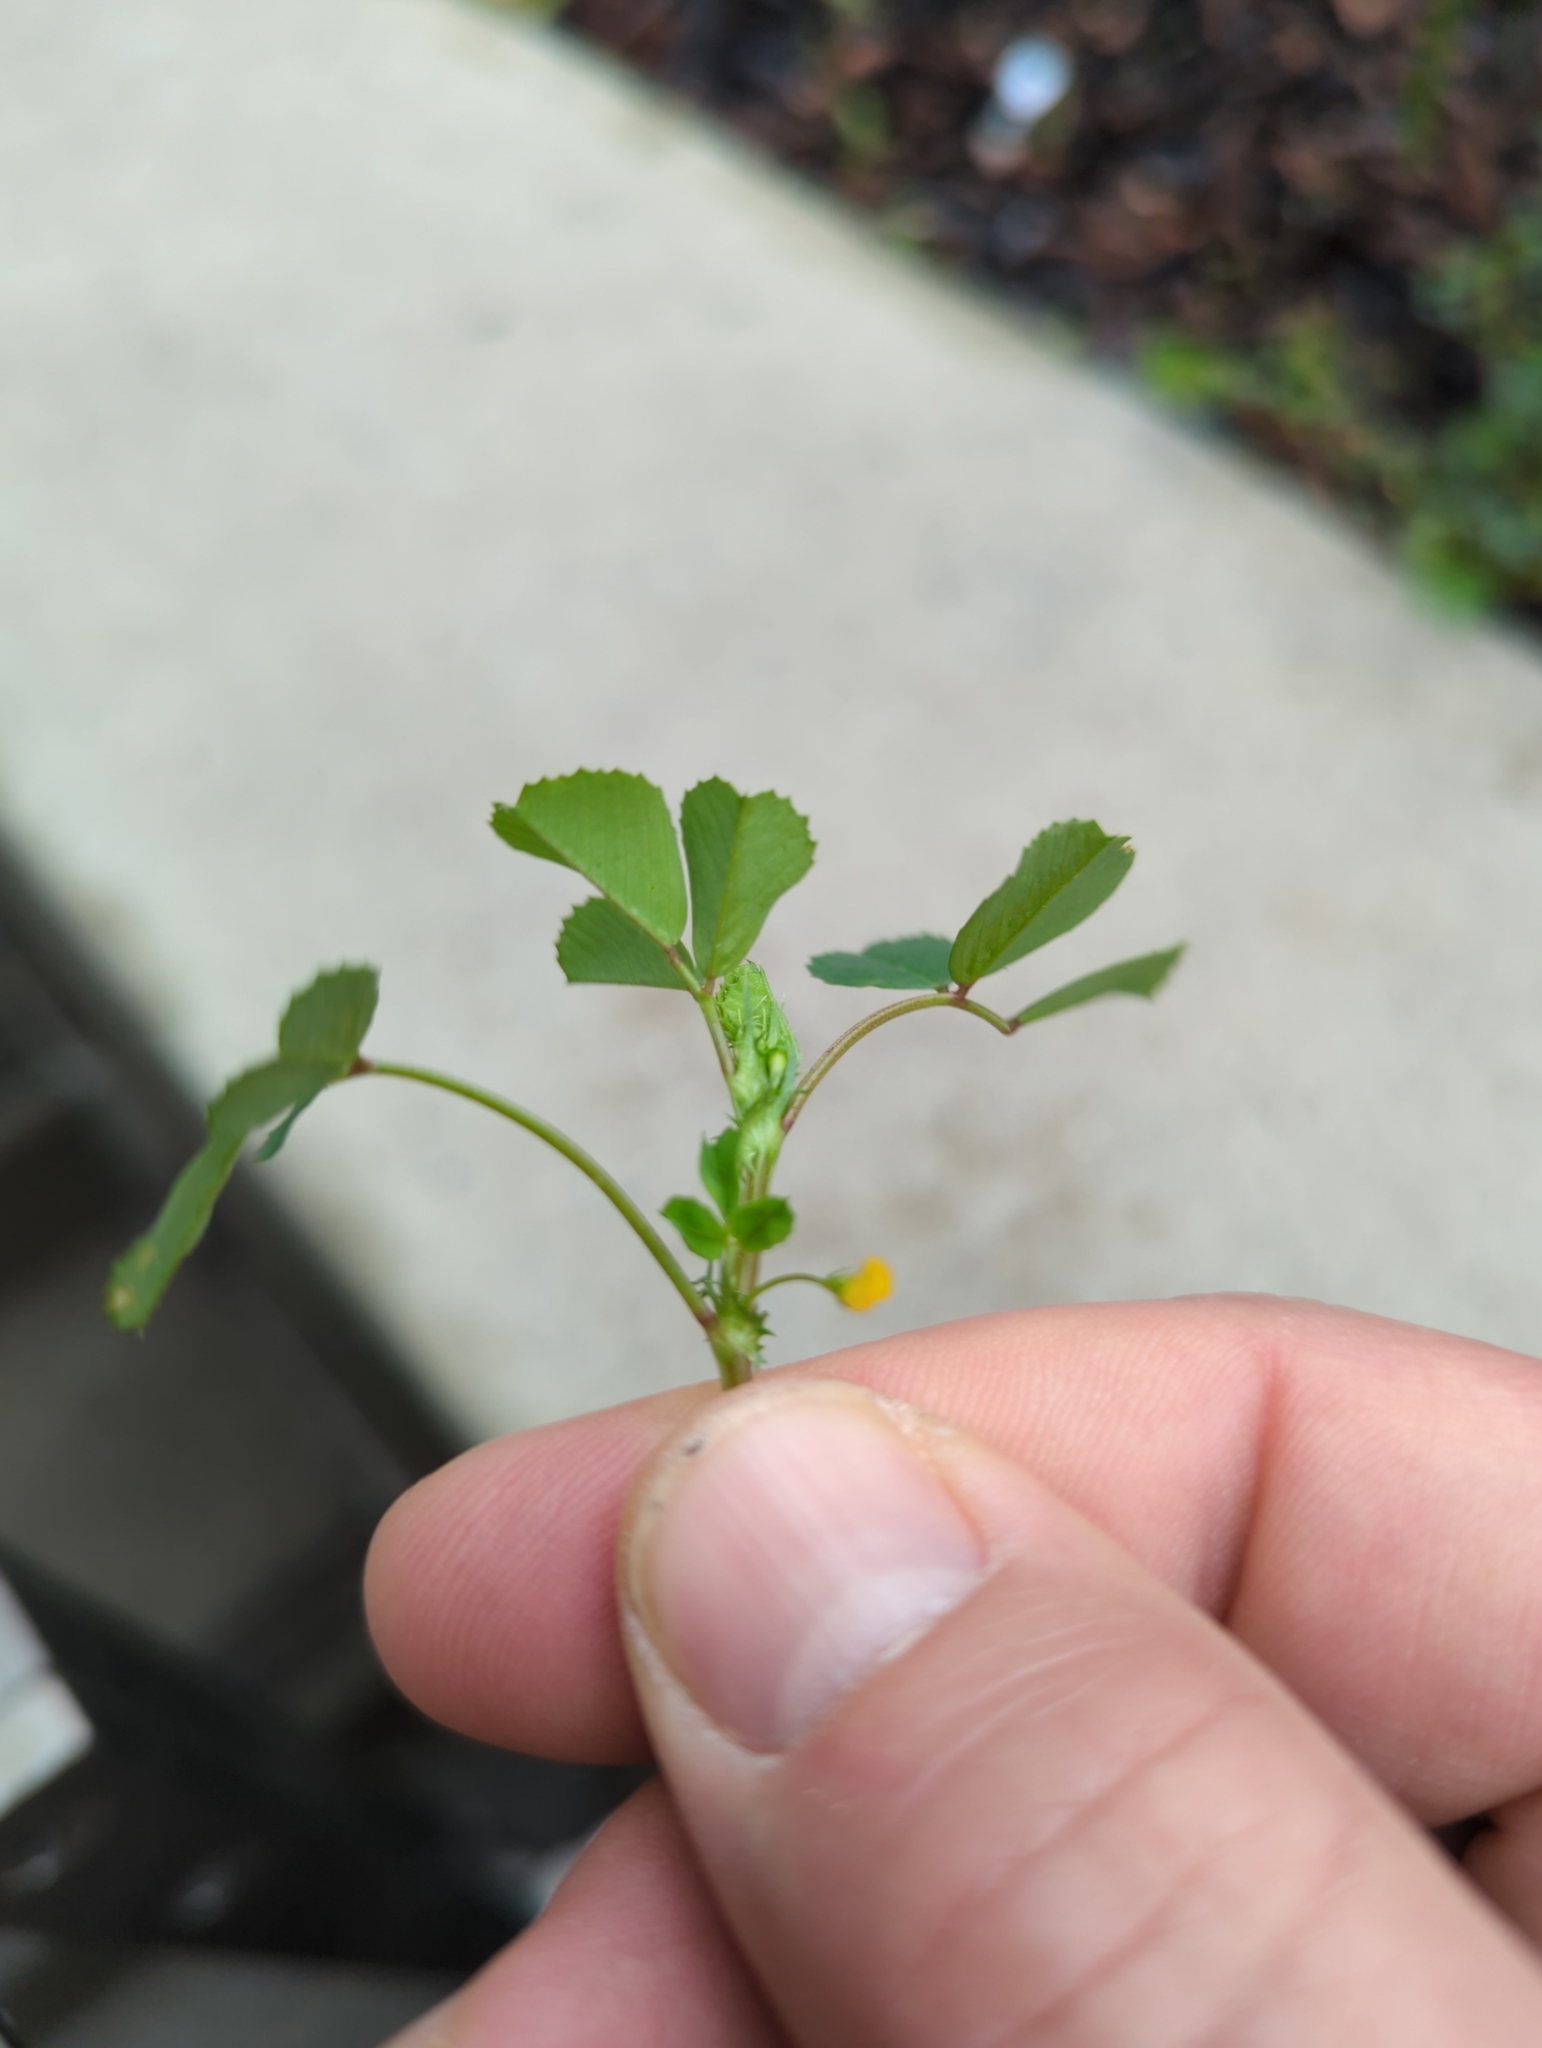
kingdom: Plantae
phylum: Tracheophyta
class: Magnoliopsida
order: Fabales
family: Fabaceae
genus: Medicago
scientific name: Medicago polymorpha
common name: Burclover
